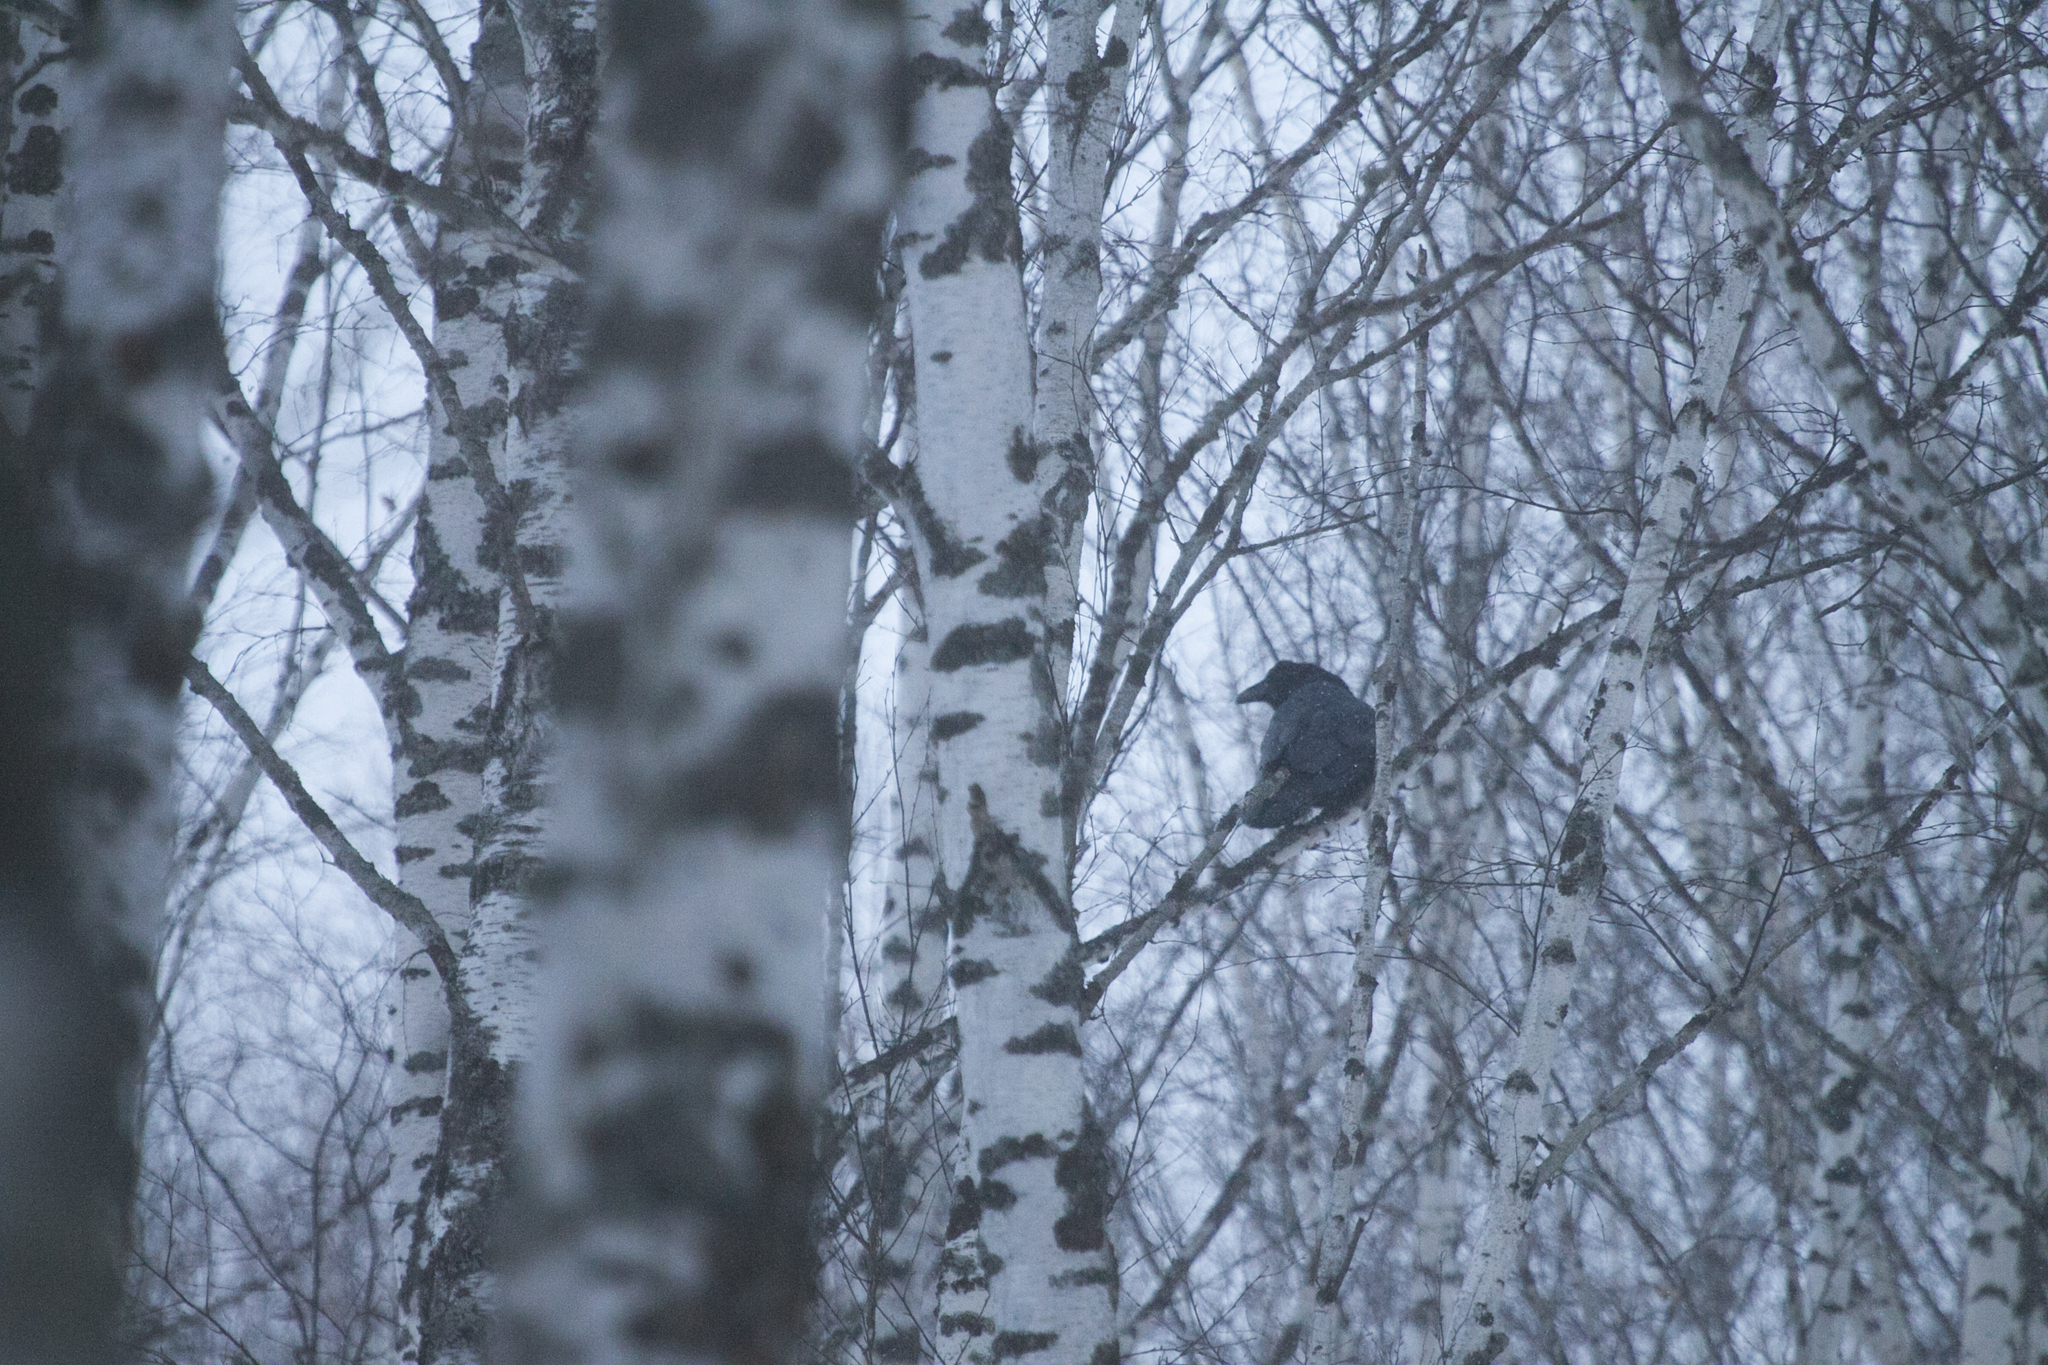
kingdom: Animalia
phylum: Chordata
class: Aves
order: Passeriformes
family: Corvidae
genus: Corvus
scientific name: Corvus corax
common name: Common raven
